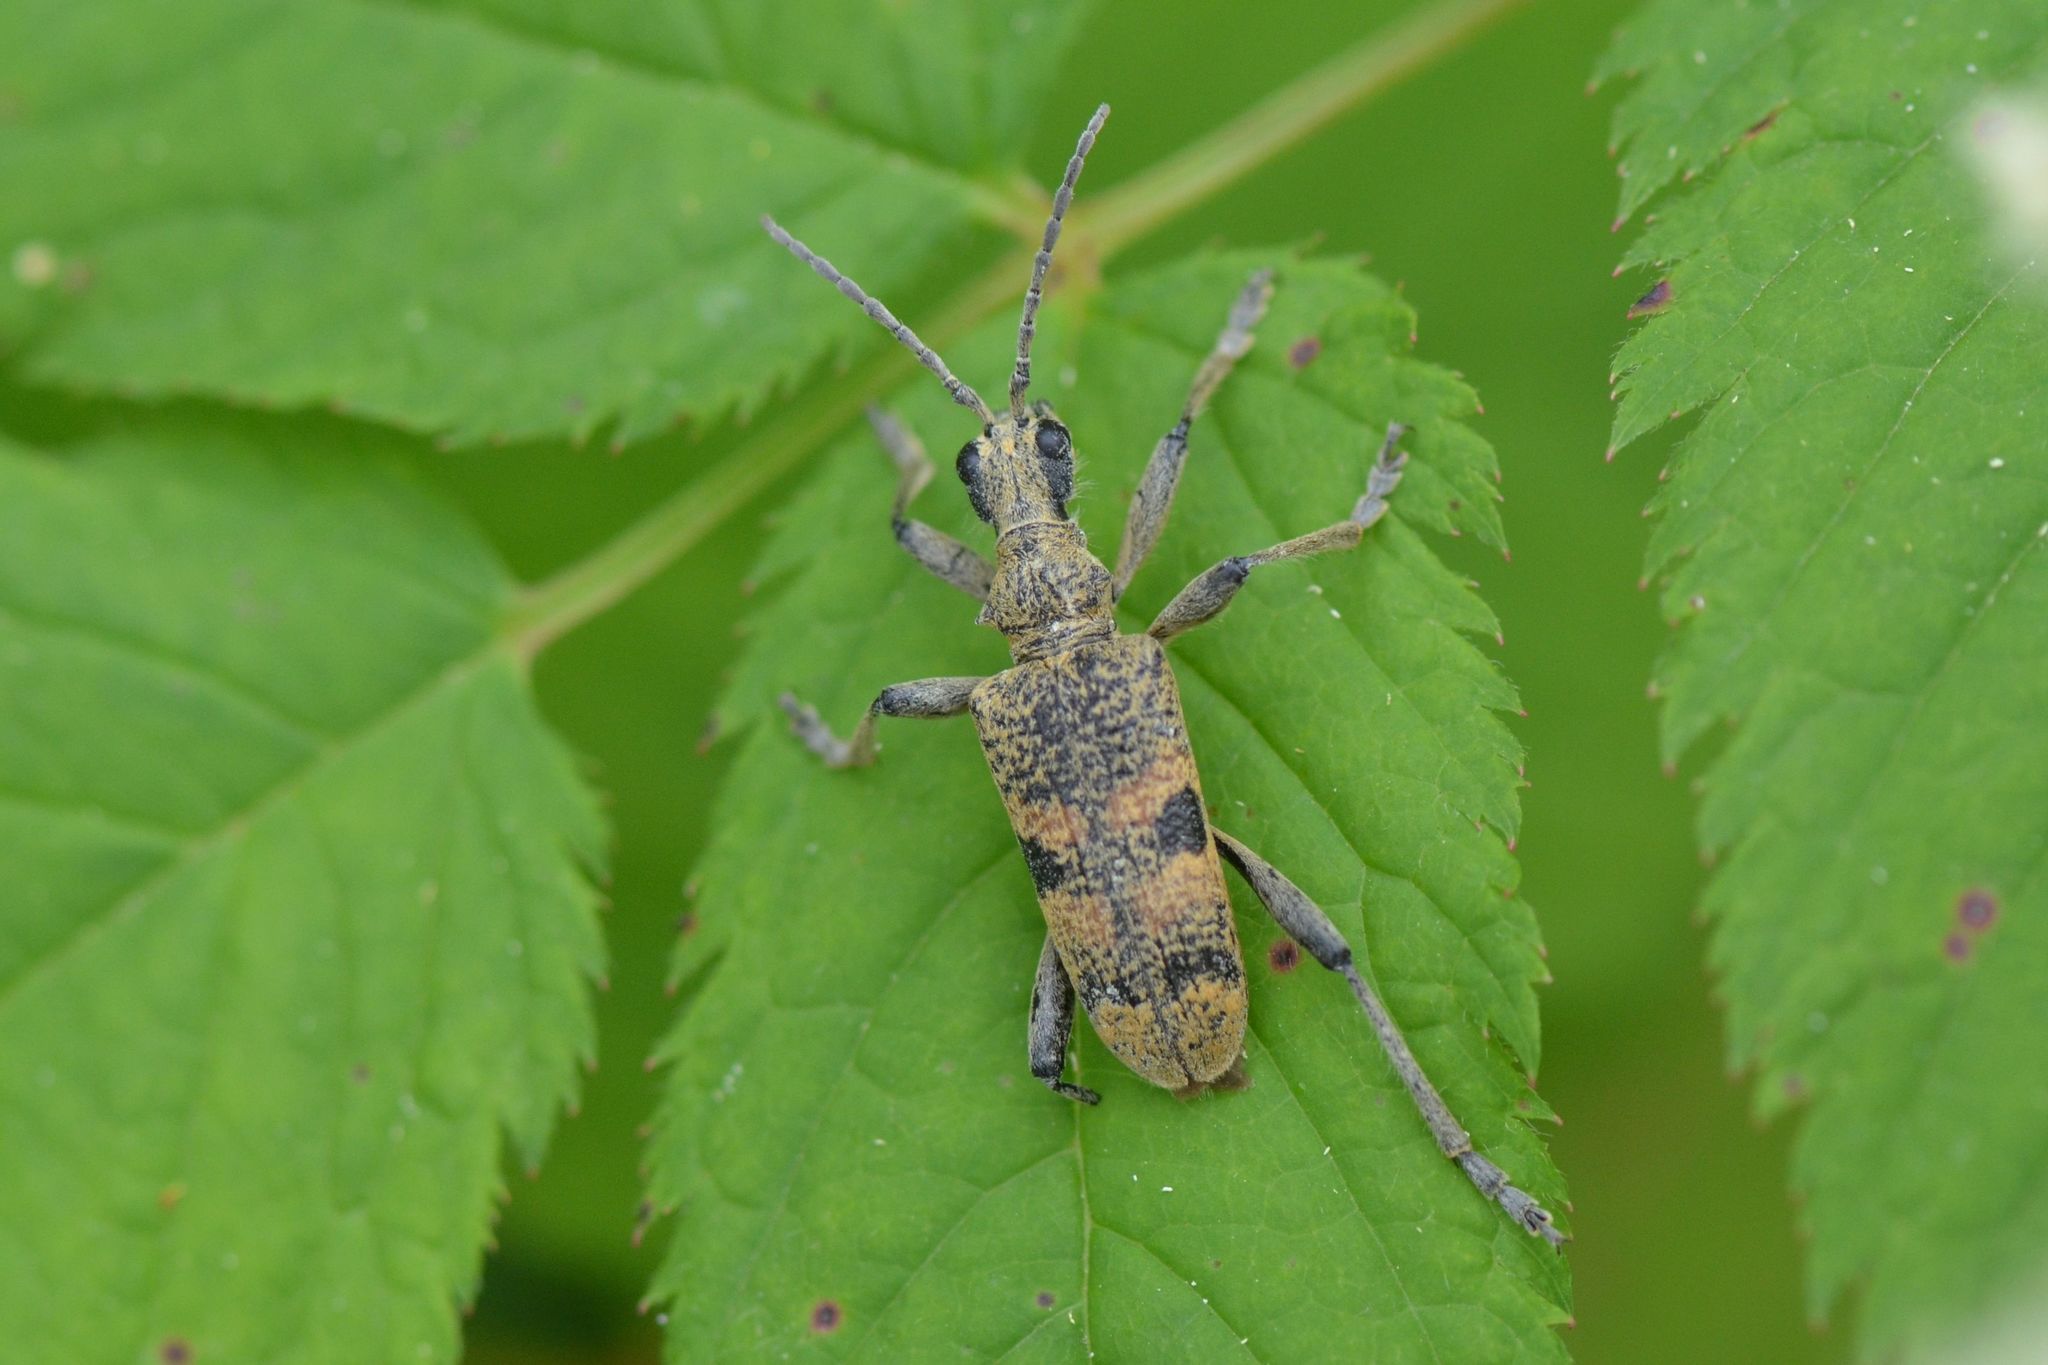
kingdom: Animalia
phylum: Arthropoda
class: Insecta
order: Coleoptera
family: Cerambycidae
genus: Rhagium
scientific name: Rhagium mordax
